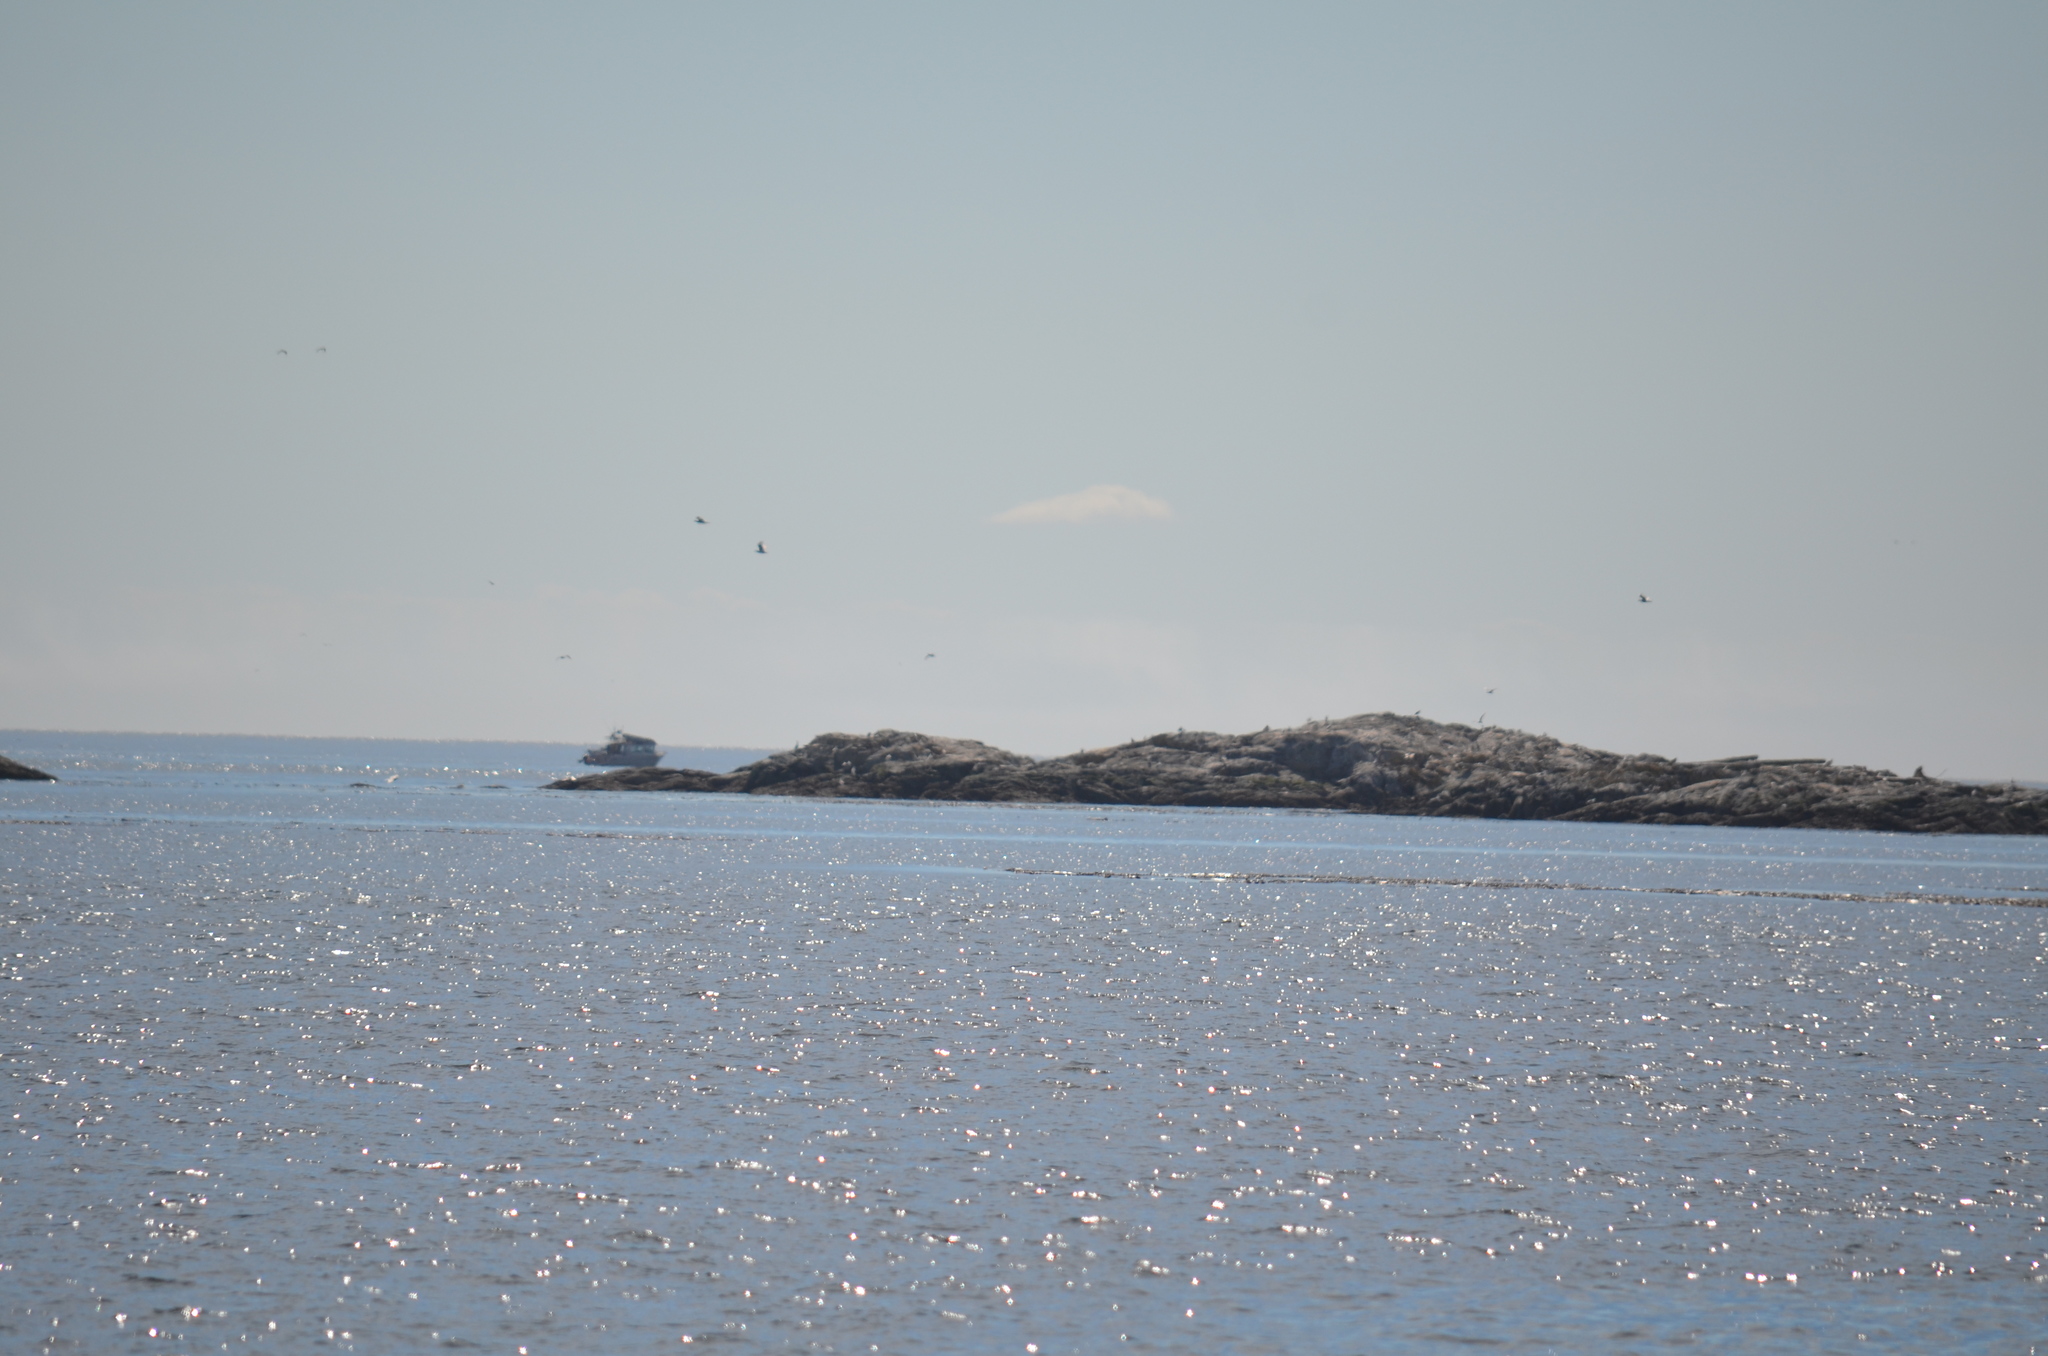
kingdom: Animalia
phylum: Chordata
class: Aves
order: Charadriiformes
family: Laridae
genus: Larus
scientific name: Larus glaucescens
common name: Glaucous-winged gull
